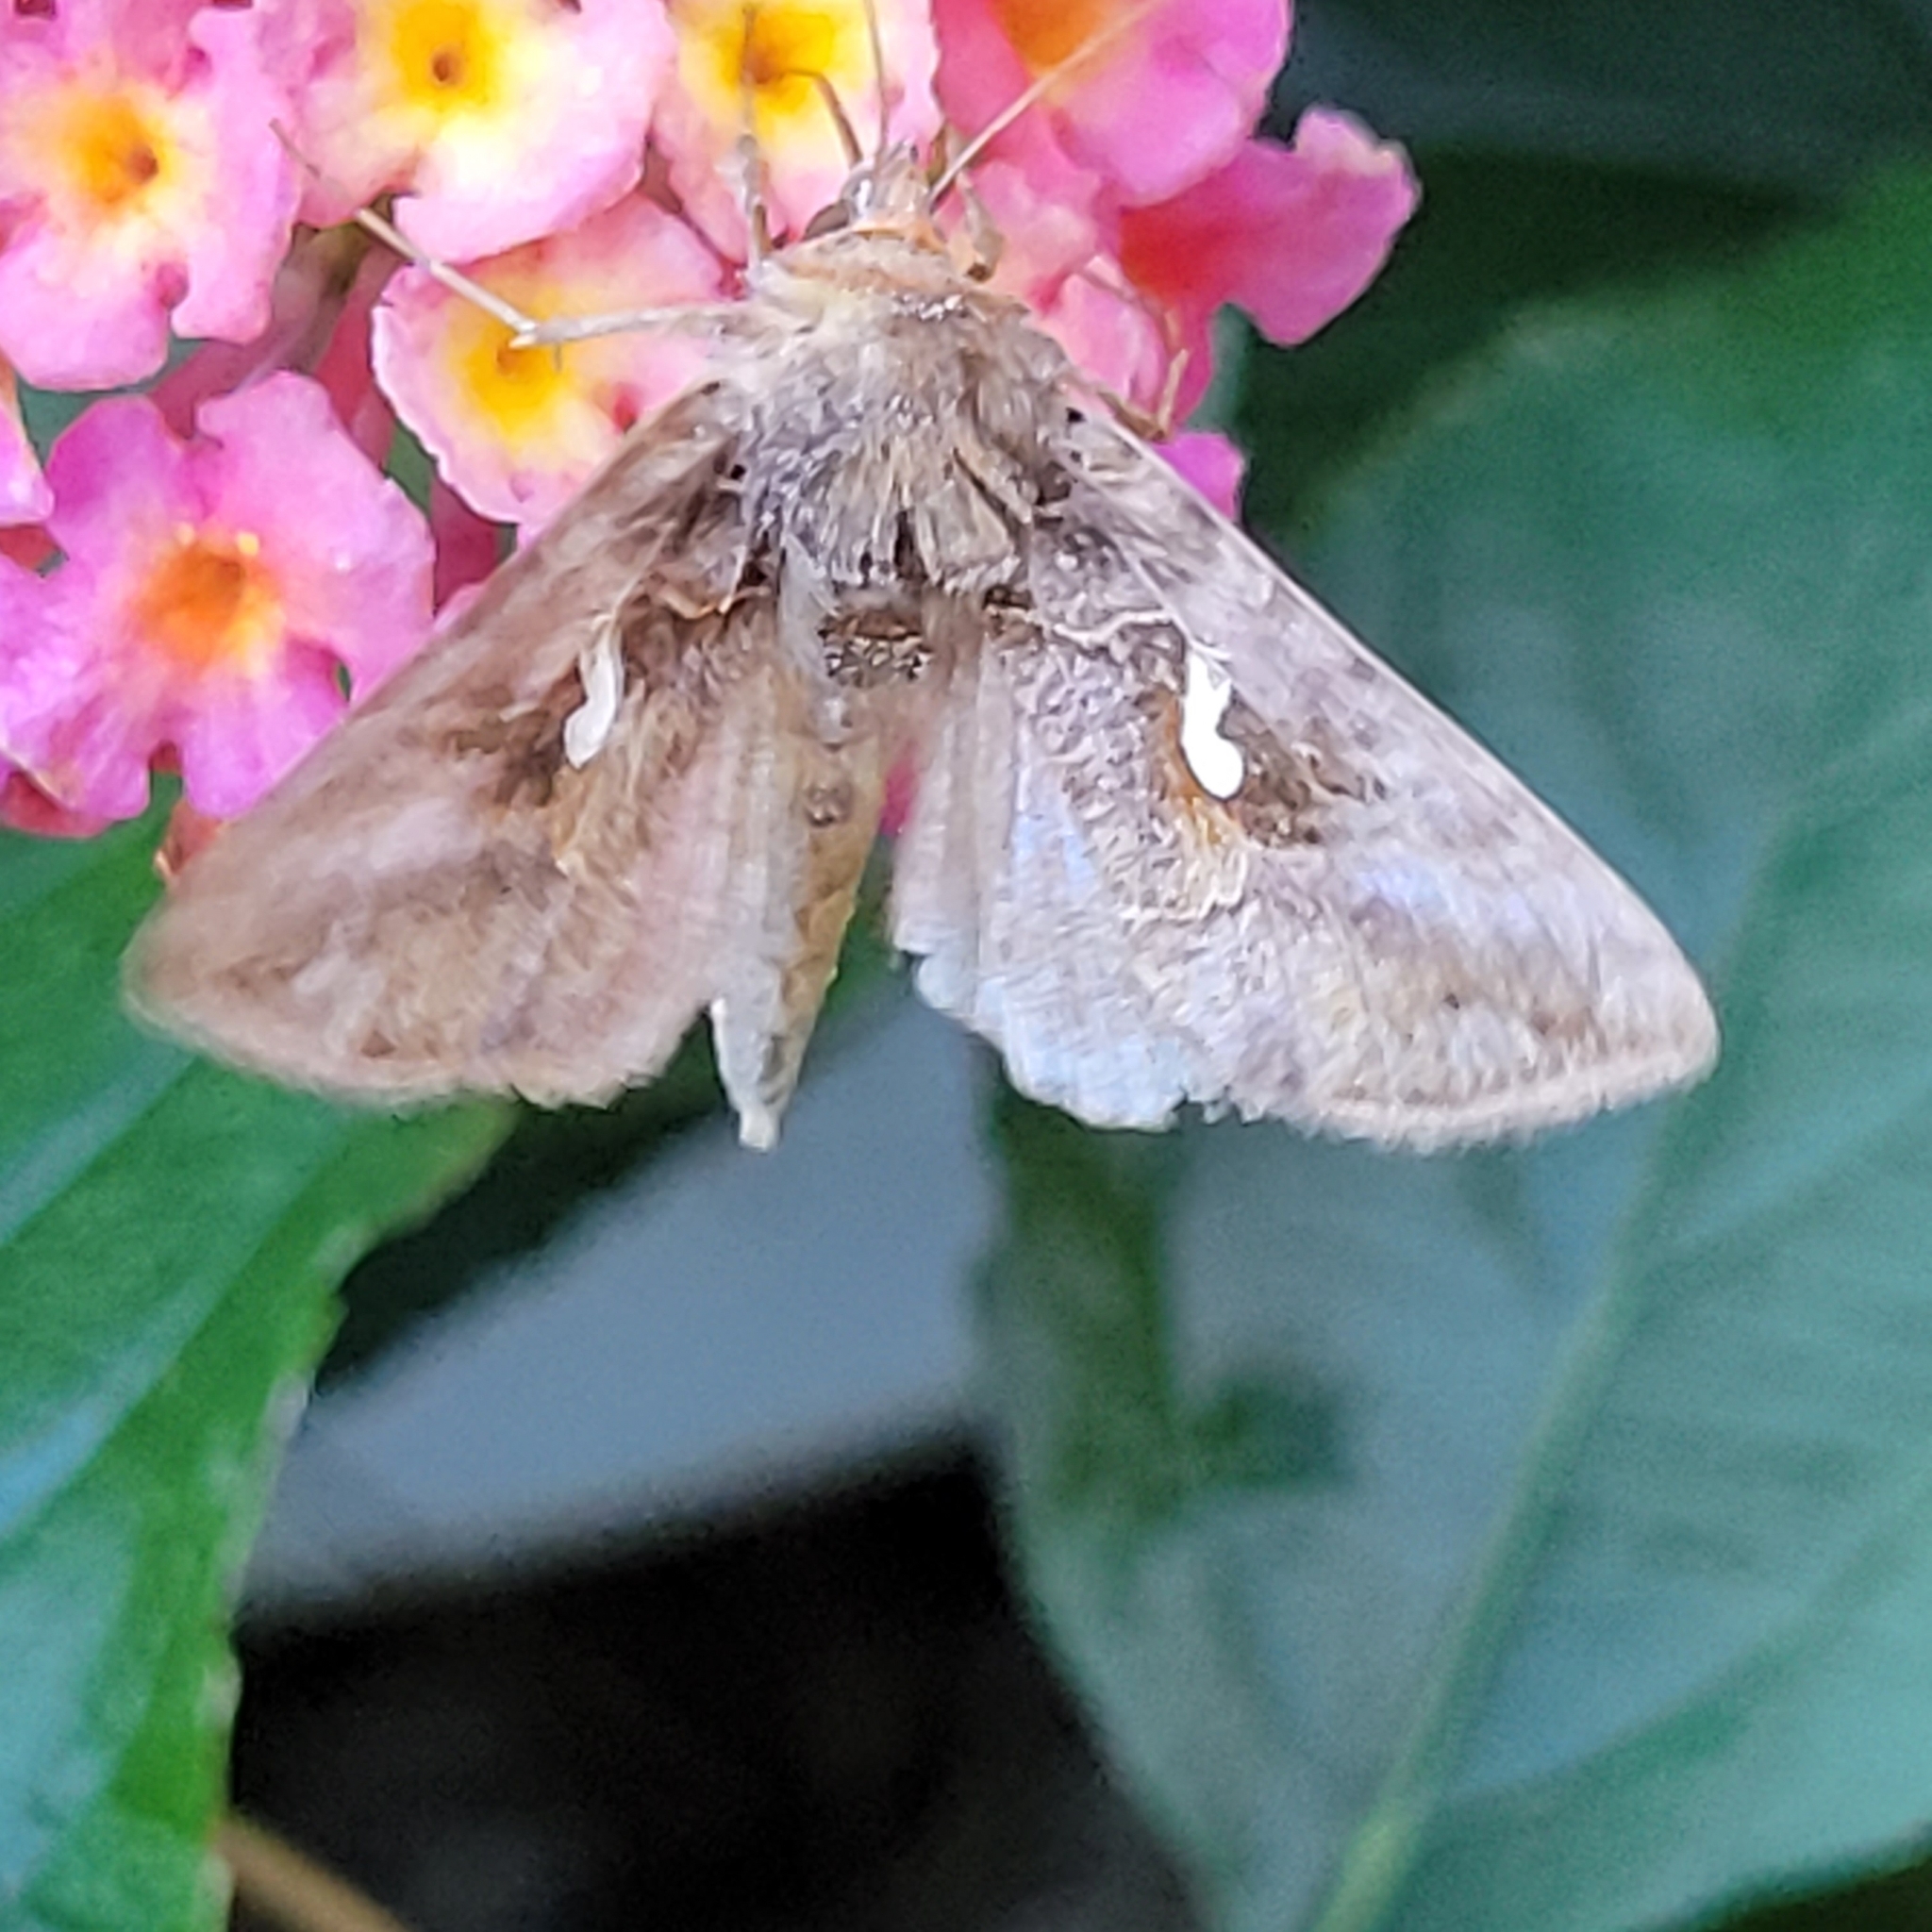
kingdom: Animalia
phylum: Arthropoda
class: Insecta
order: Lepidoptera
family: Noctuidae
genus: Autographa
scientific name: Autographa precationis
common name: Common looper moth
